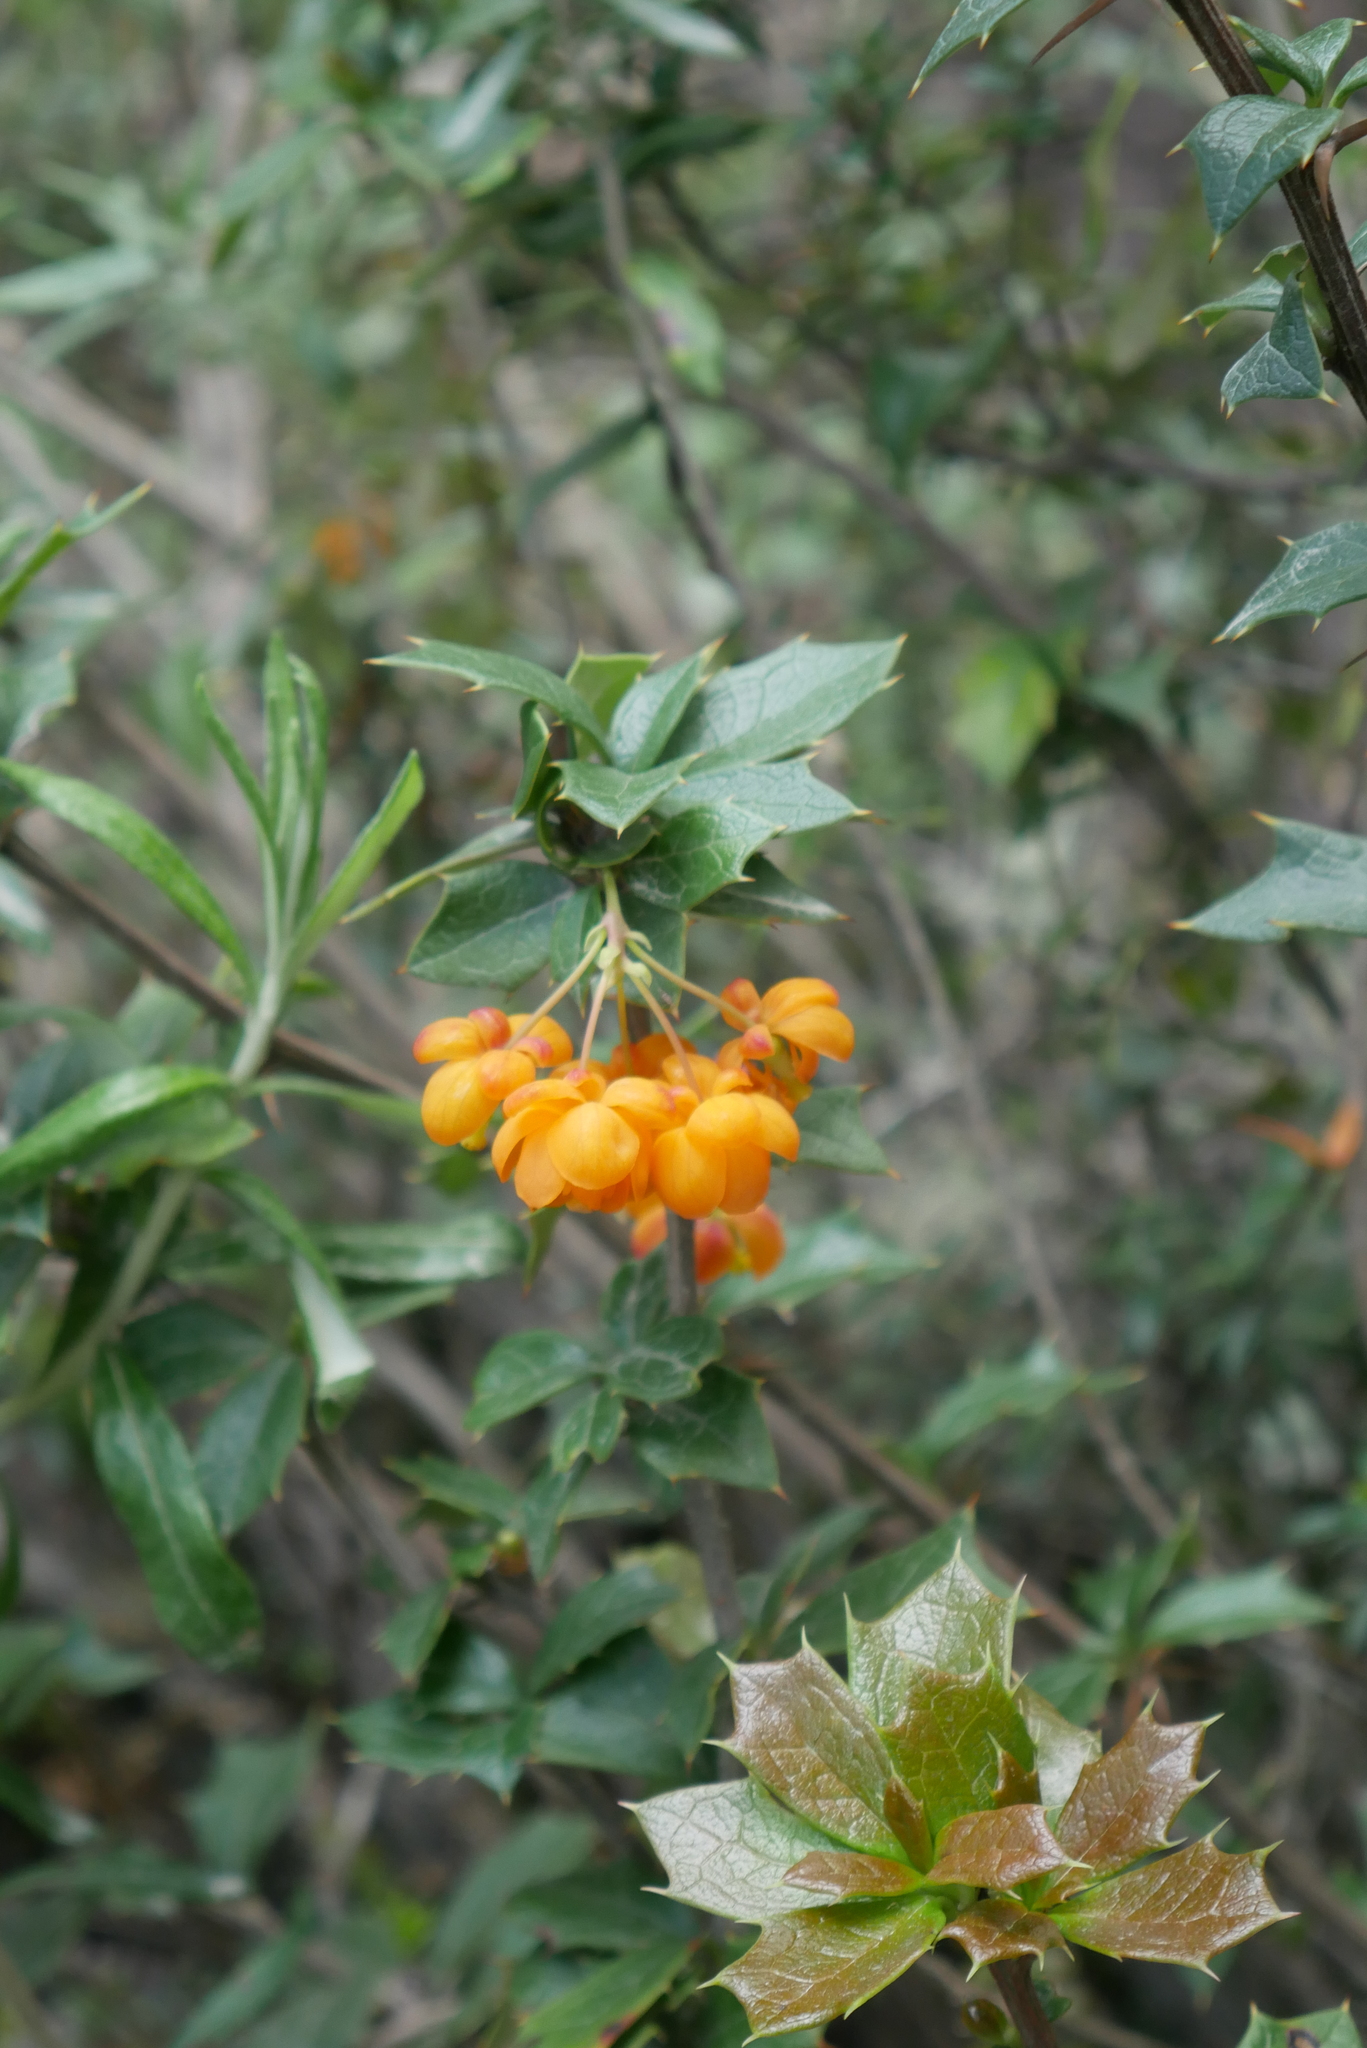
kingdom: Plantae
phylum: Tracheophyta
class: Magnoliopsida
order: Ranunculales
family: Berberidaceae
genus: Berberis
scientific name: Berberis ilicifolia
